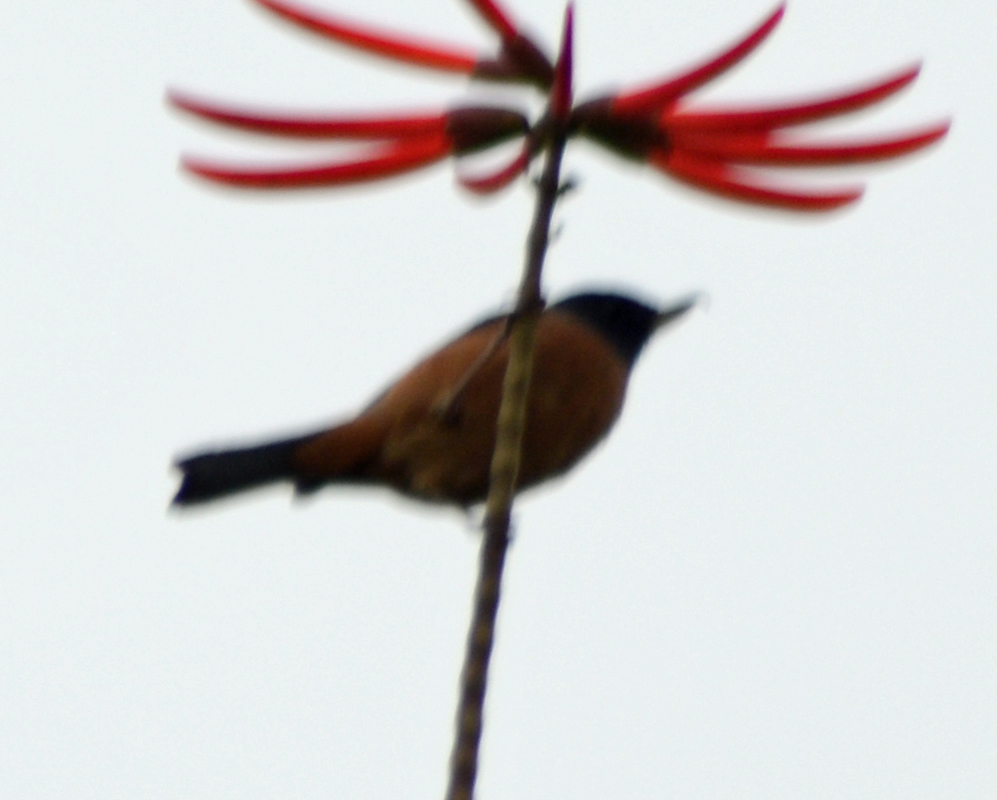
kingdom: Animalia
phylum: Chordata
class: Aves
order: Passeriformes
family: Thraupidae
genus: Diglossa
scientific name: Diglossa baritula
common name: Cinnamon-bellied flowerpiercer
